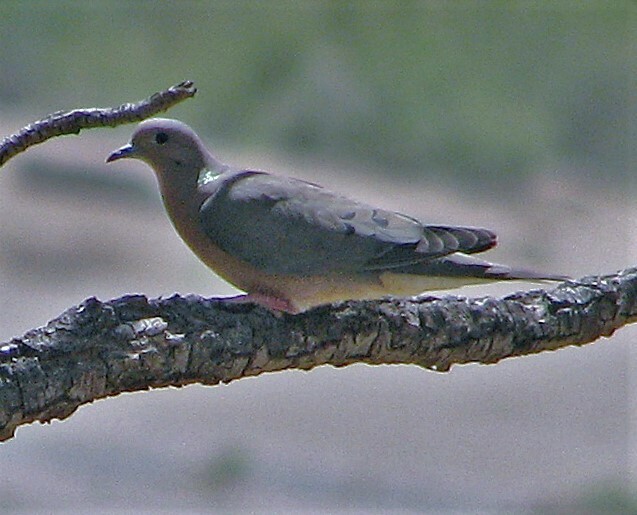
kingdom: Animalia
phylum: Chordata
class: Aves
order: Columbiformes
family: Columbidae
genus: Zenaida
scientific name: Zenaida auriculata
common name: Eared dove
